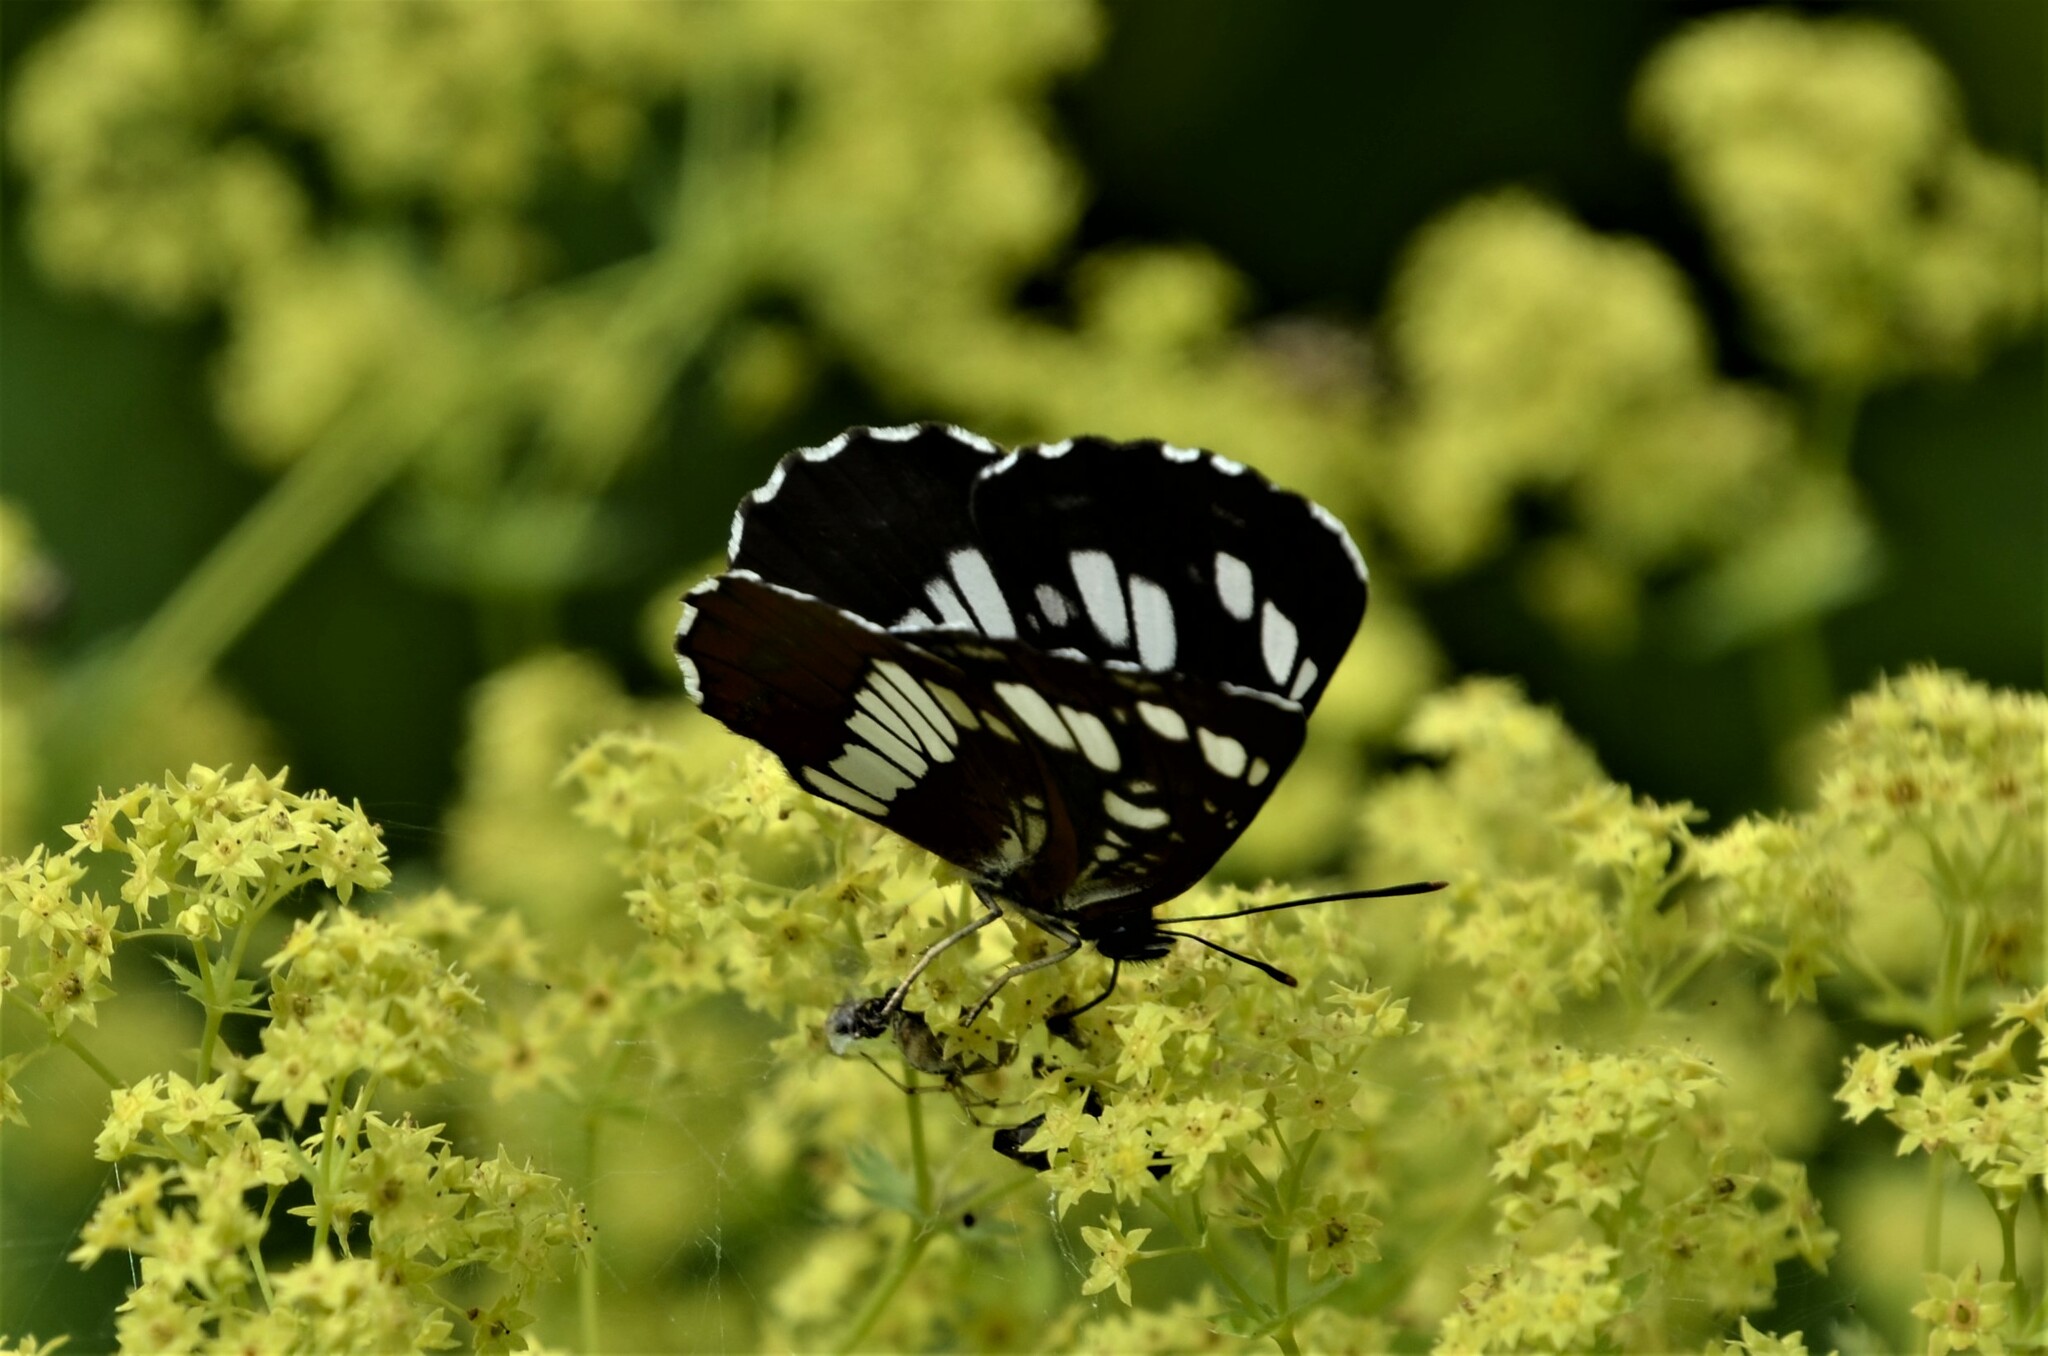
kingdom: Animalia
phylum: Arthropoda
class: Insecta
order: Lepidoptera
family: Nymphalidae
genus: Neptis
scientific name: Neptis rivularis
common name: Hungarian glider
